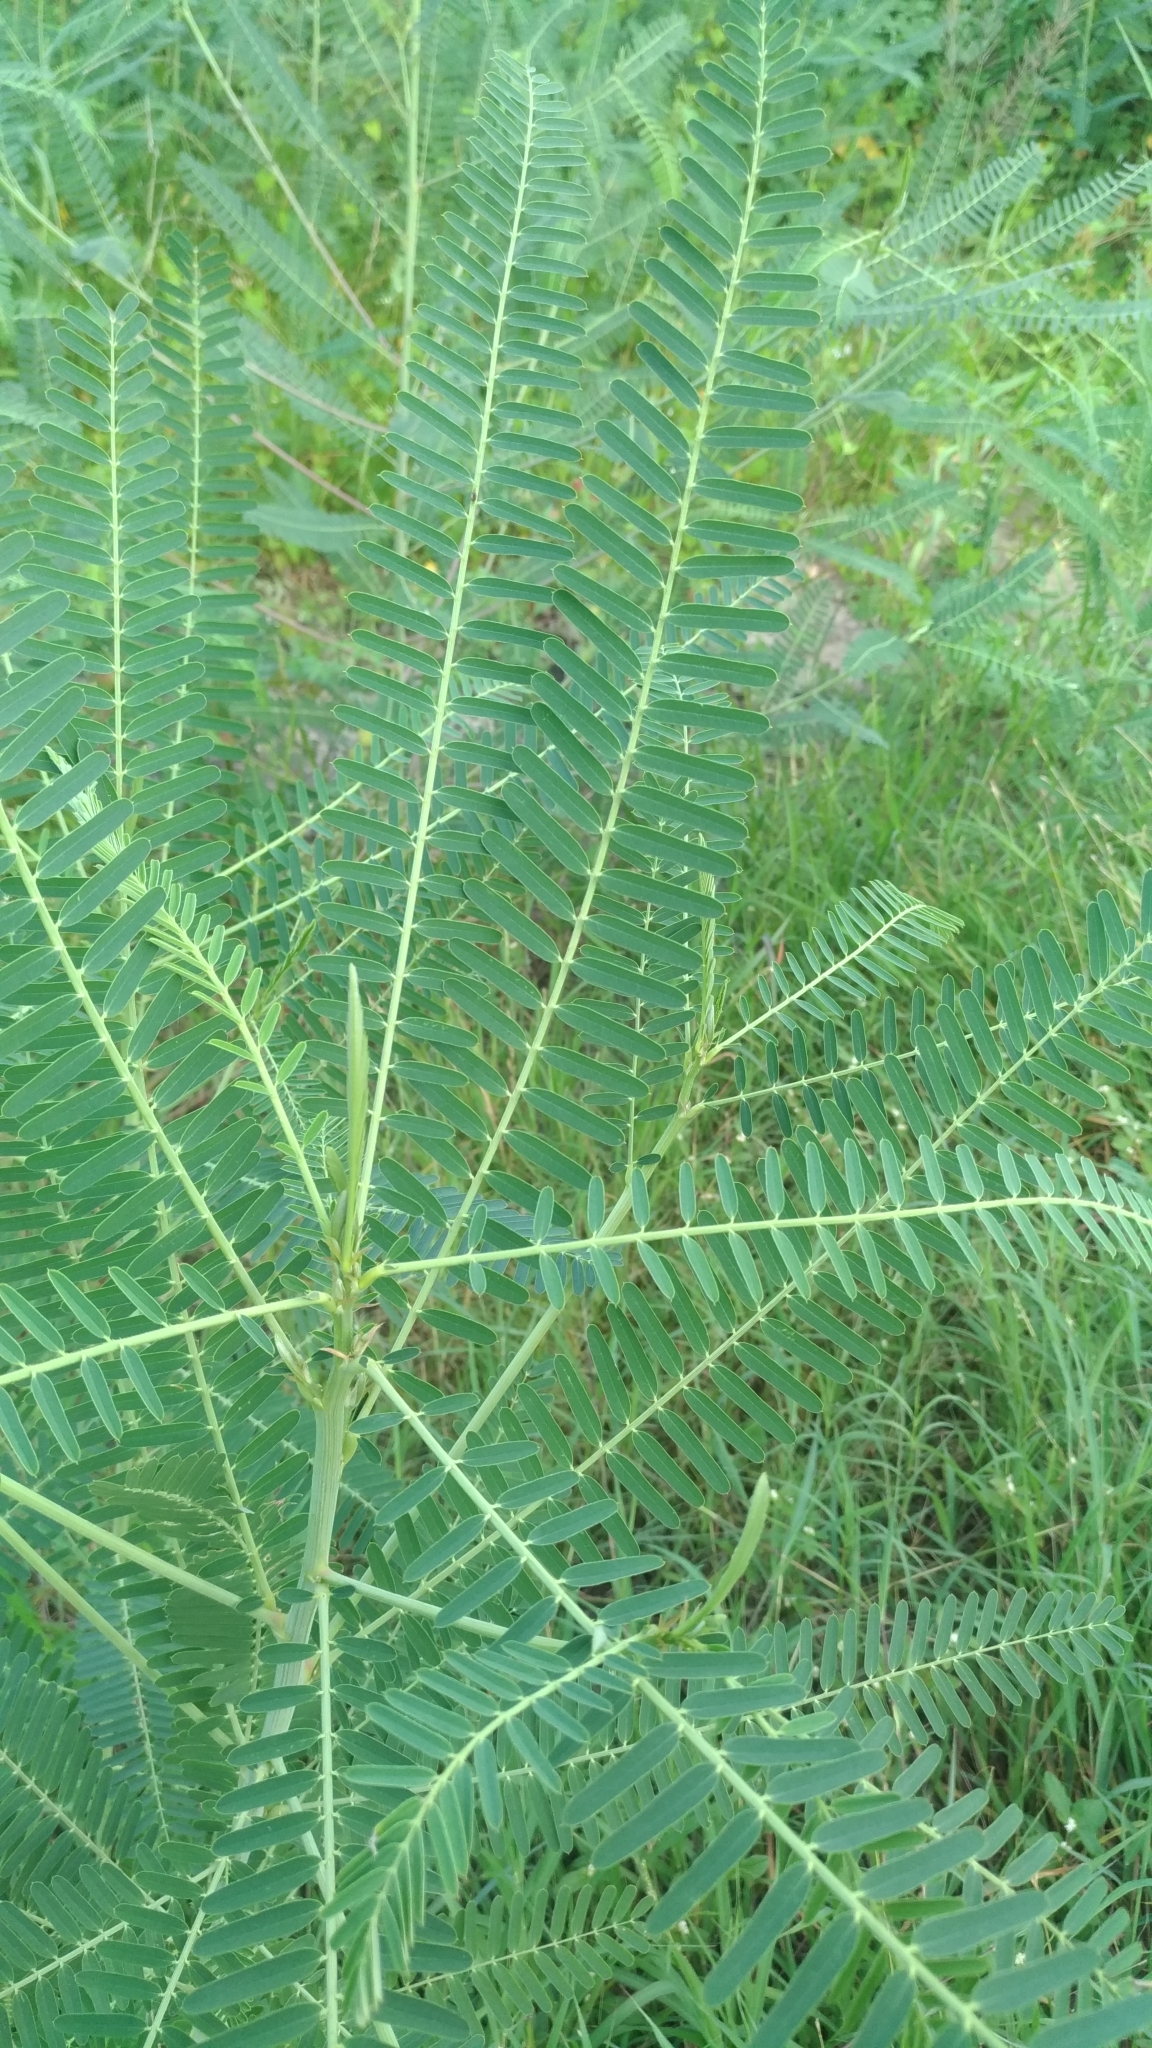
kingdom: Plantae
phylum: Tracheophyta
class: Magnoliopsida
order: Fabales
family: Fabaceae
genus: Sesbania
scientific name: Sesbania cannabina
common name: Canicha
